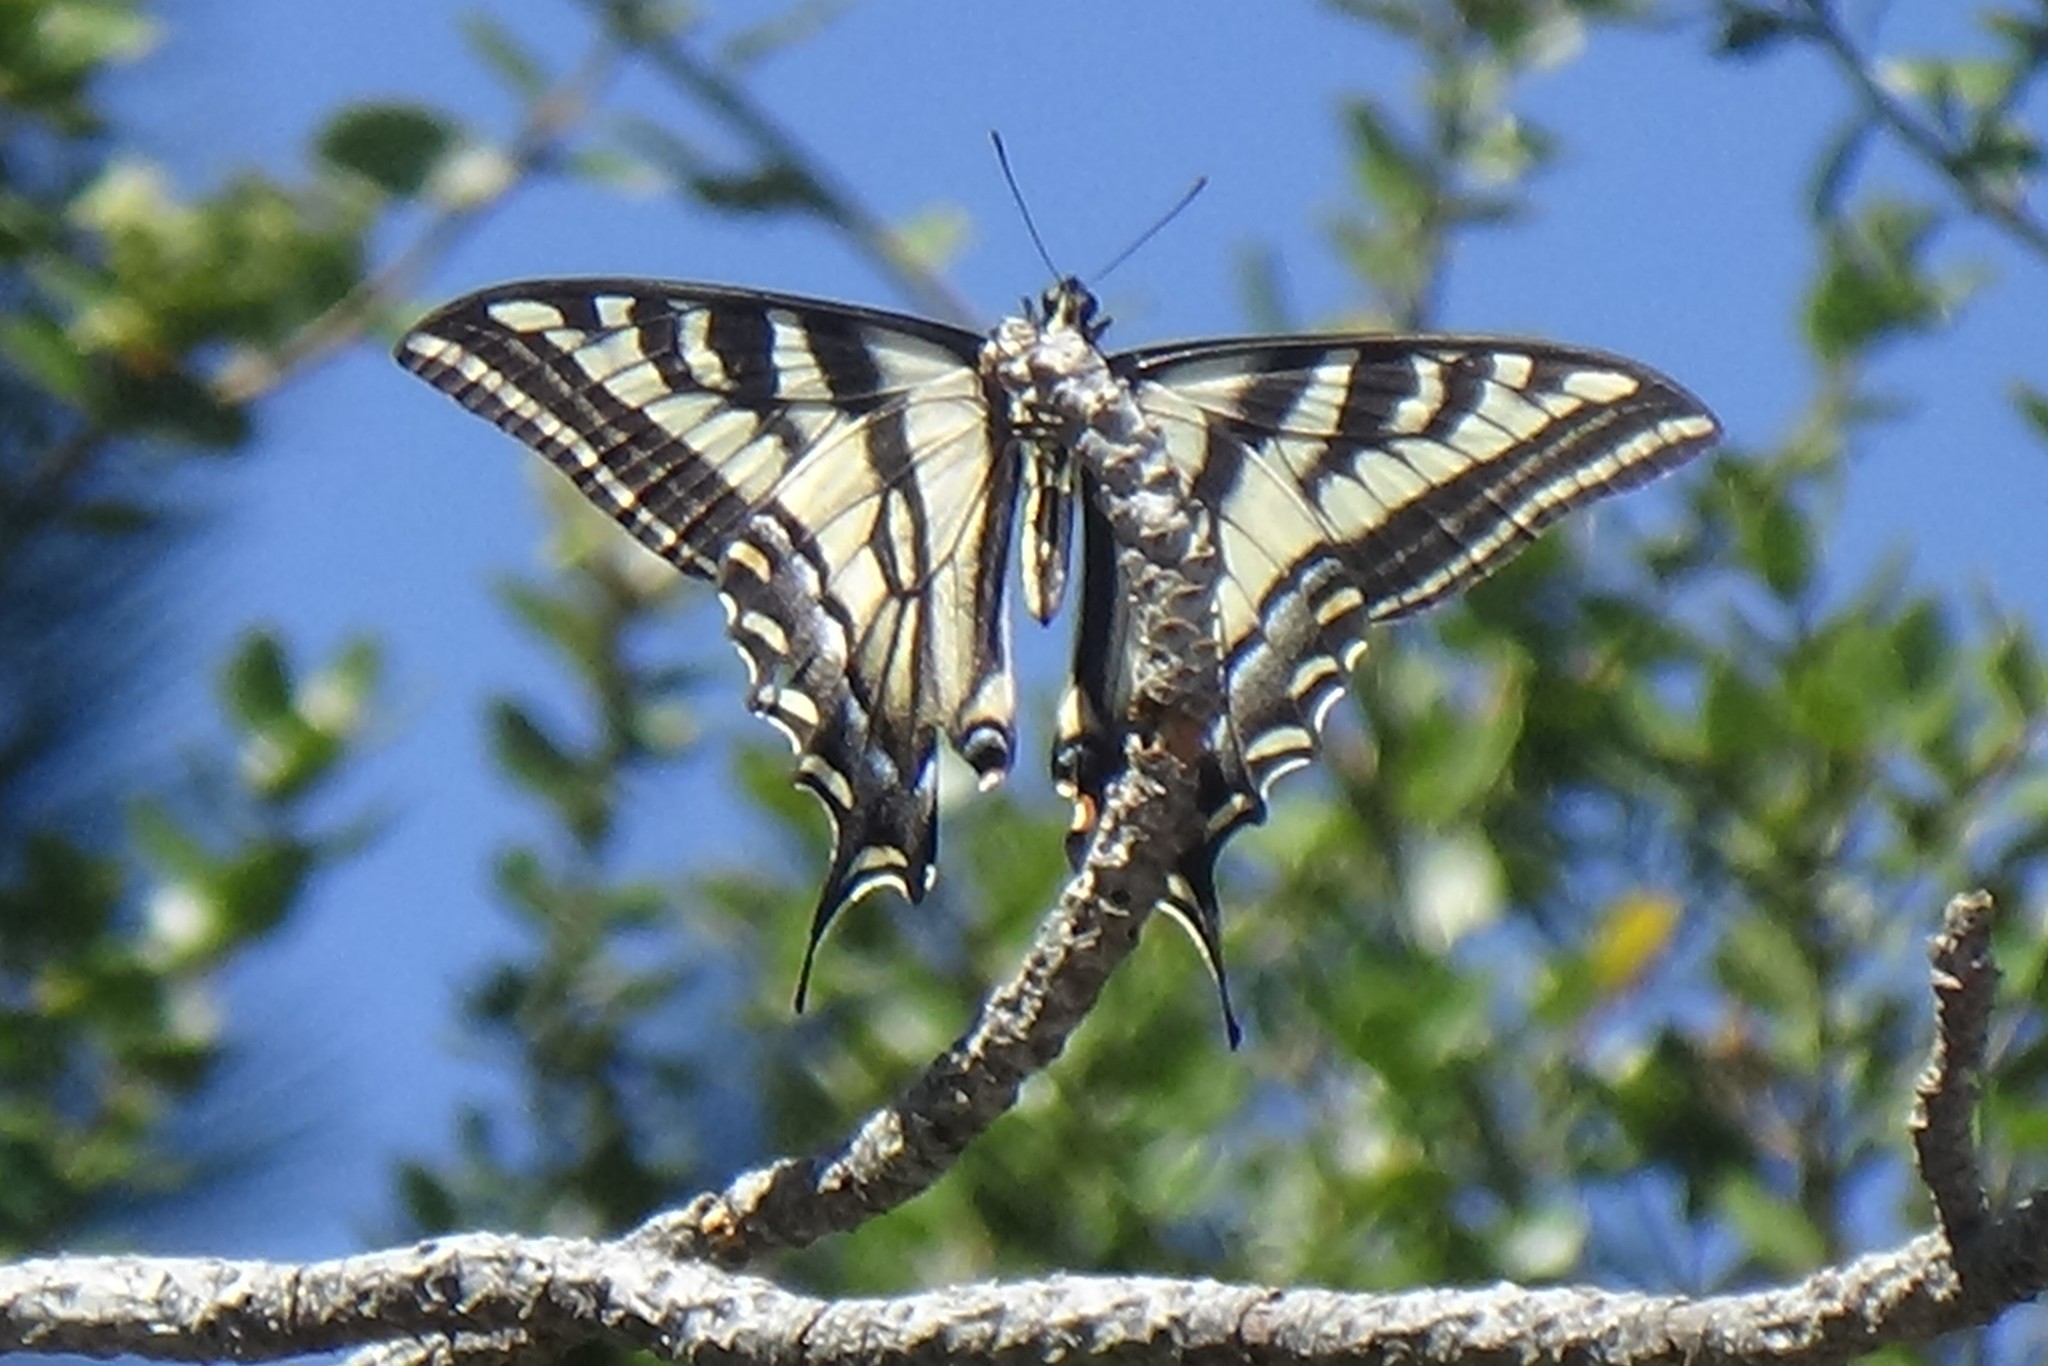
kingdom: Animalia
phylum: Arthropoda
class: Insecta
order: Lepidoptera
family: Papilionidae
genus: Papilio
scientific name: Papilio eurymedon
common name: Pale tiger swallowtail
